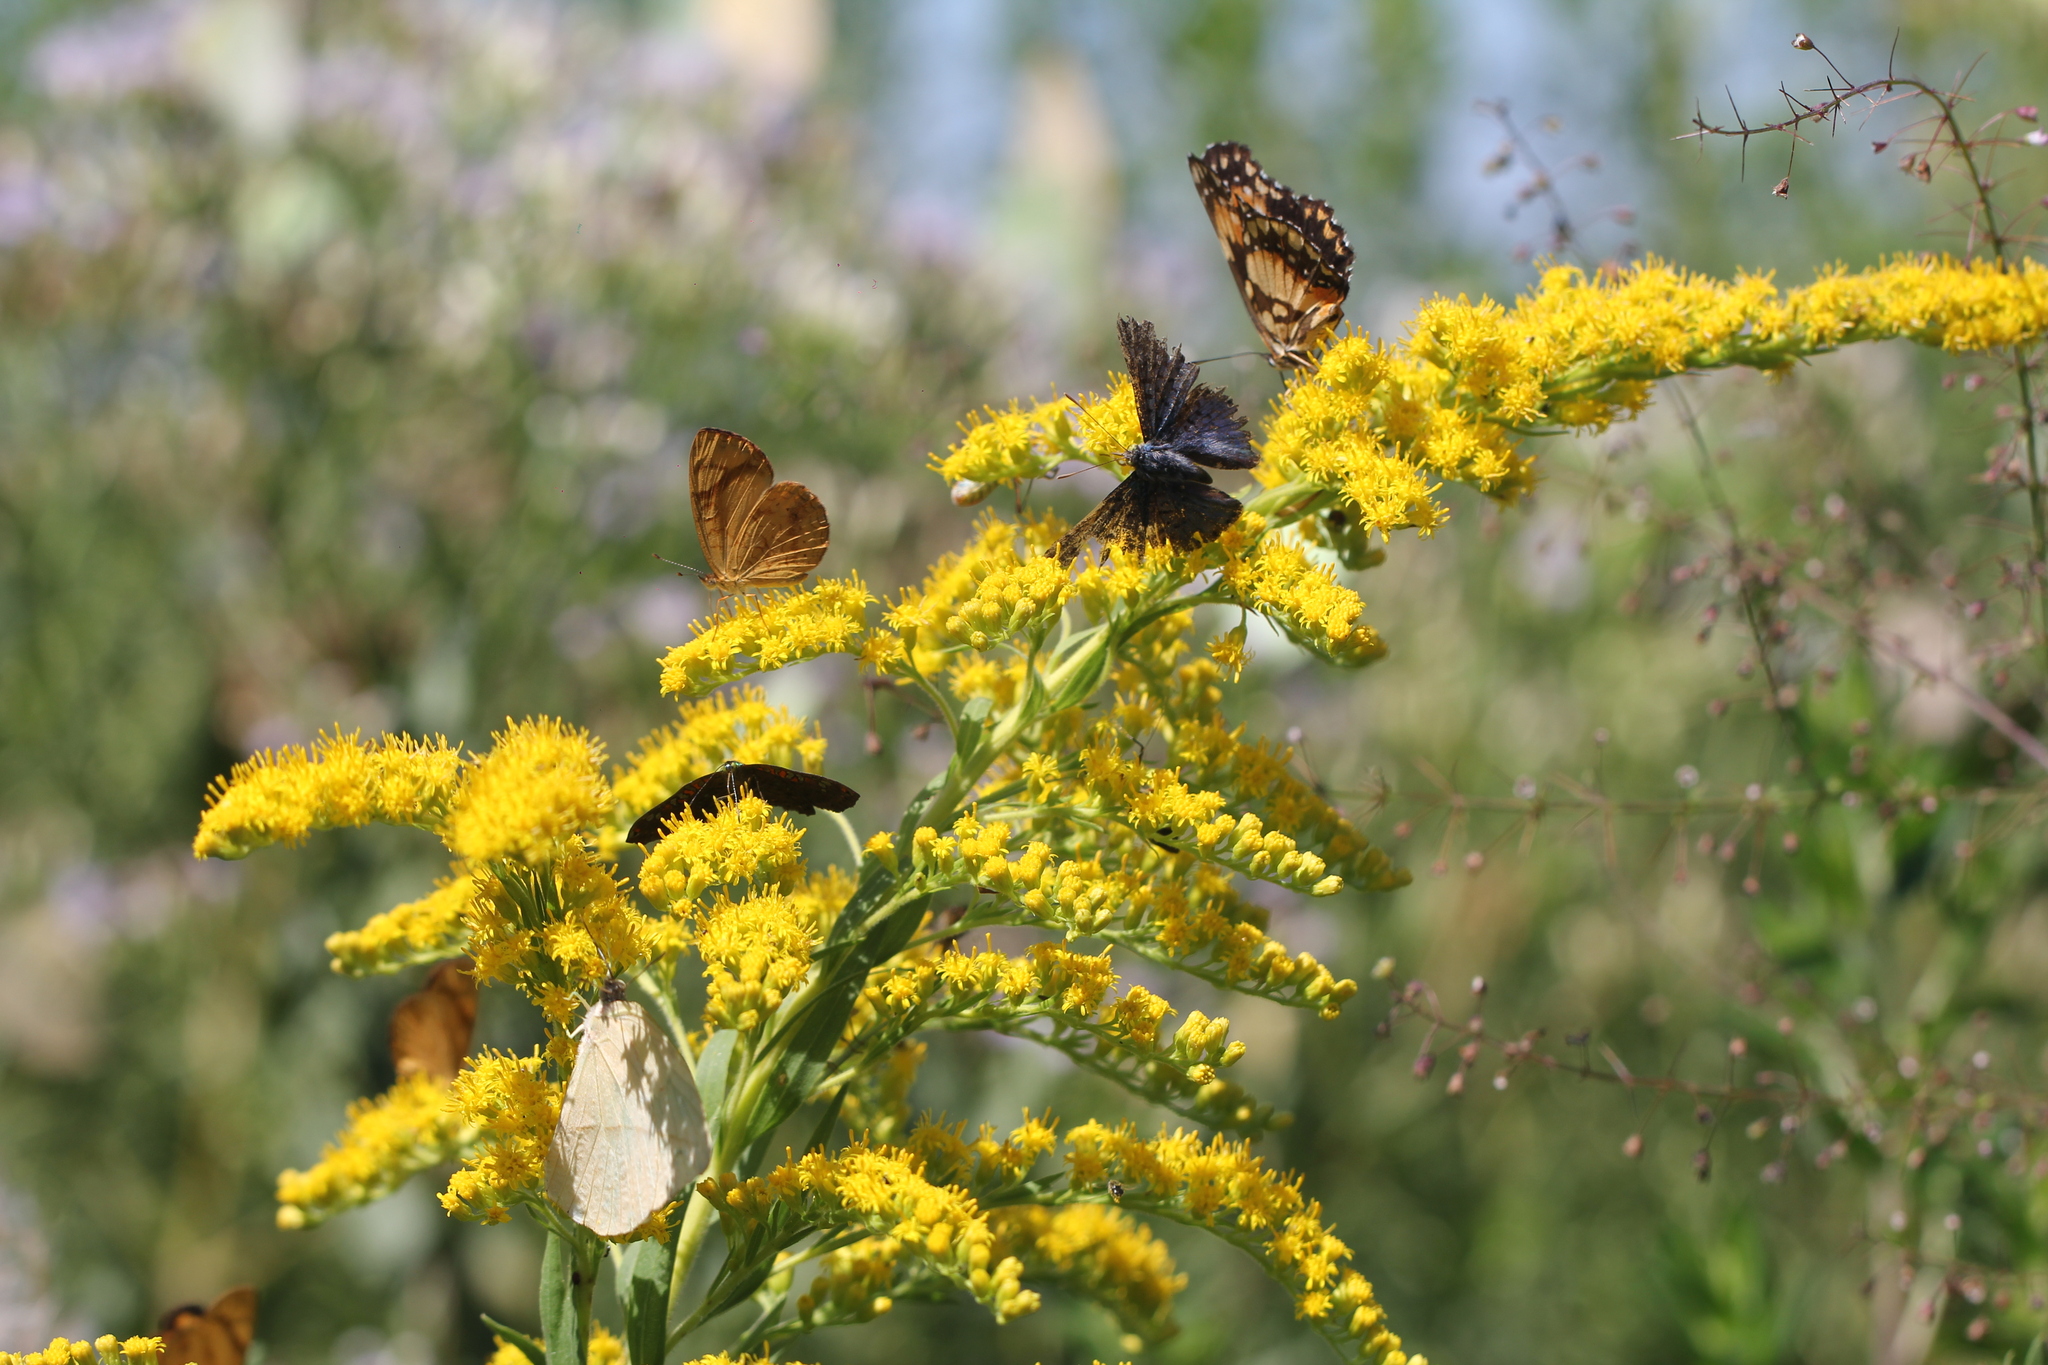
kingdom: Plantae
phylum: Tracheophyta
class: Magnoliopsida
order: Asterales
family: Asteraceae
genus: Solidago
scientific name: Solidago chilensis
